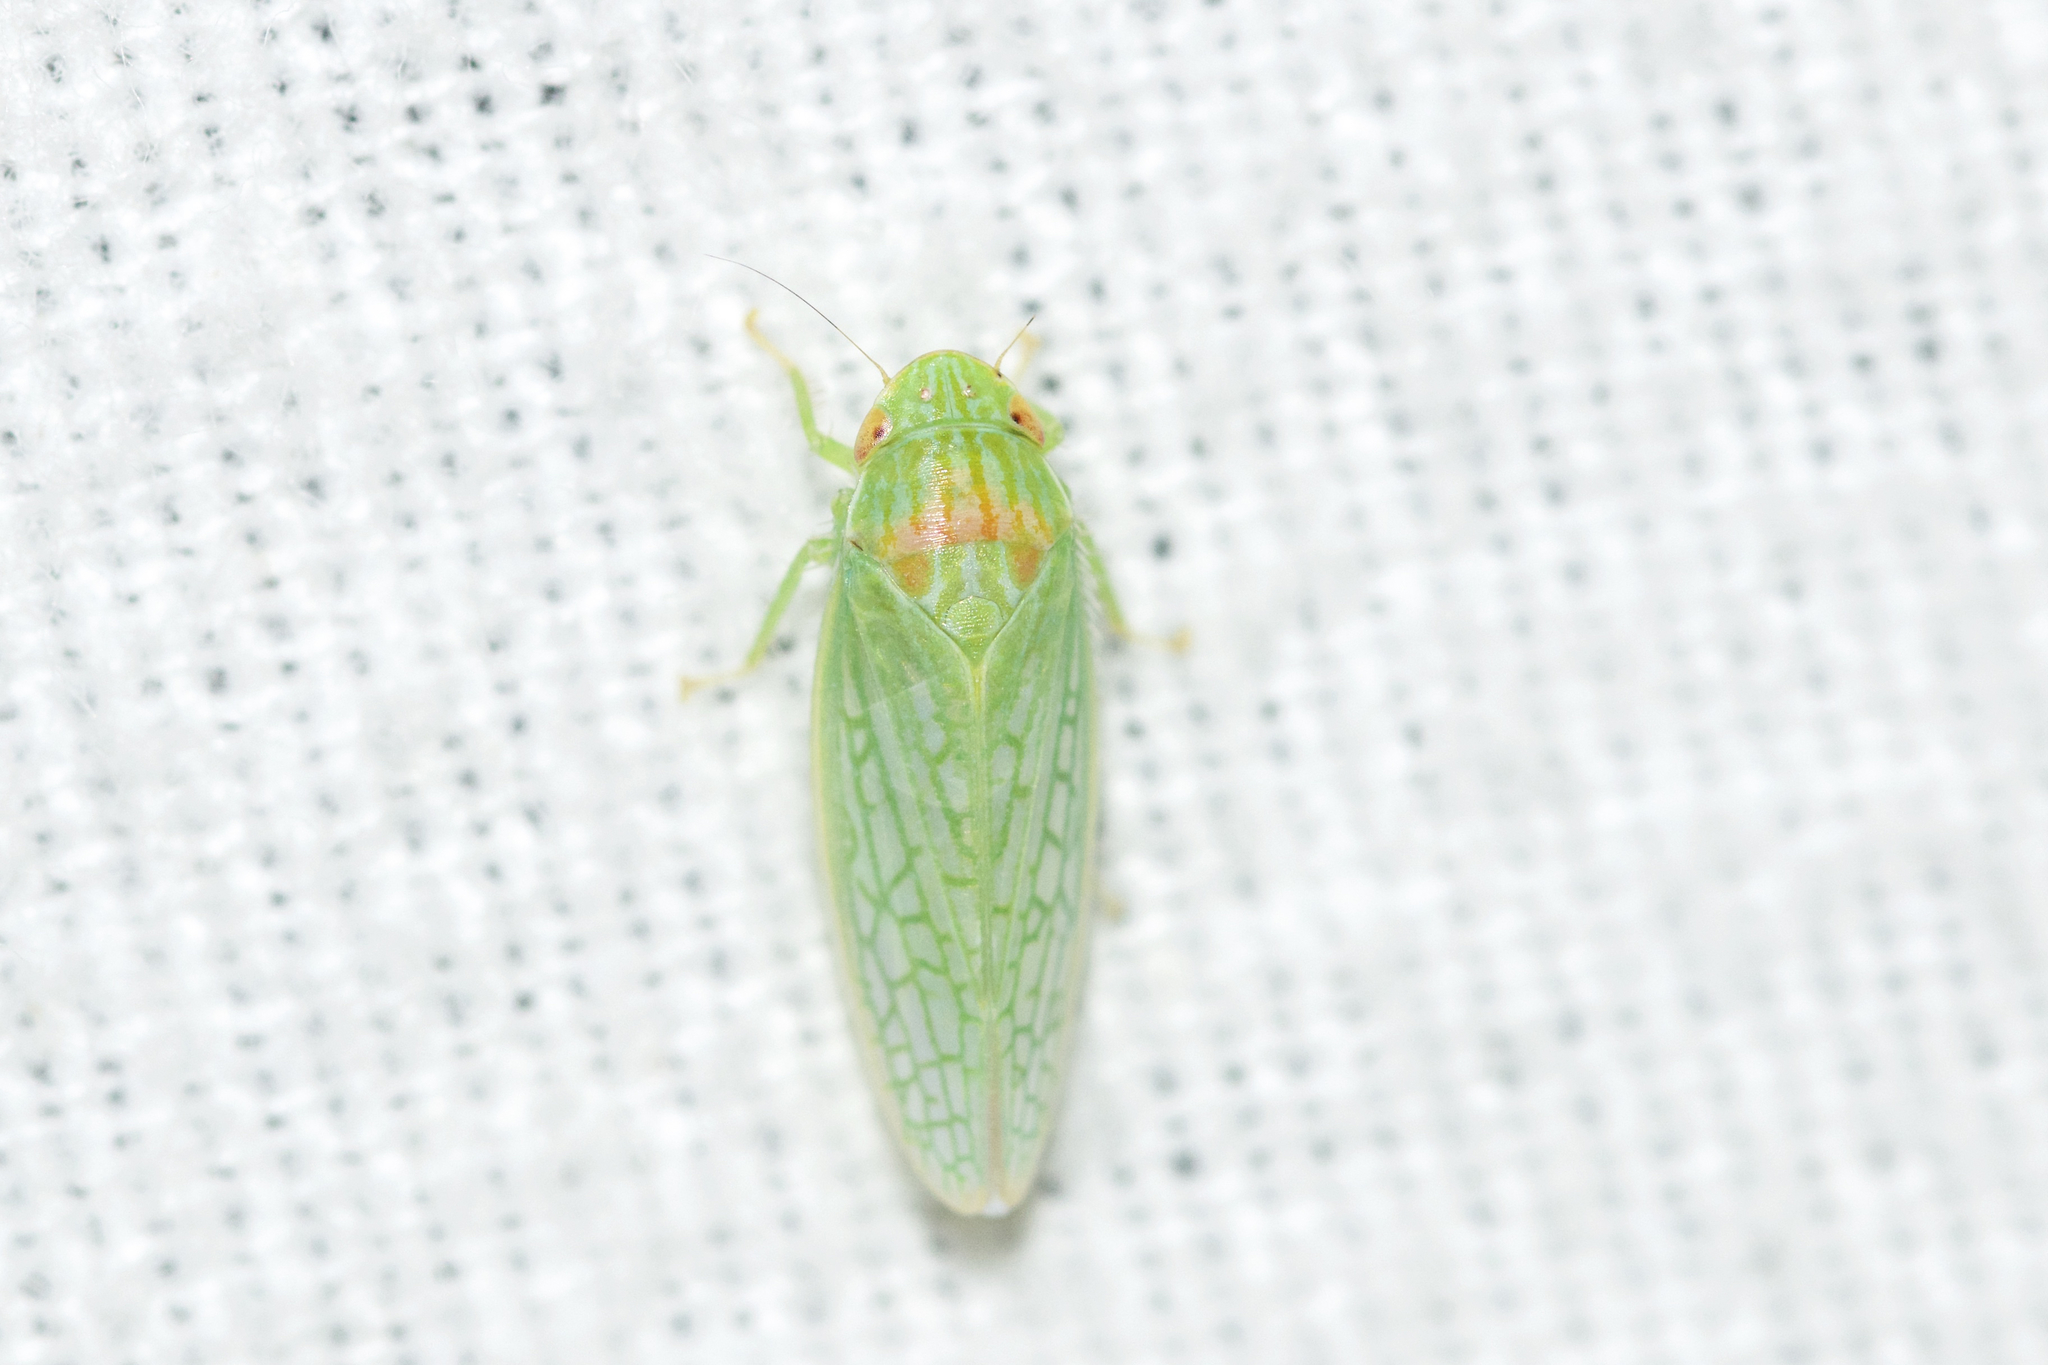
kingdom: Animalia
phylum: Arthropoda
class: Insecta
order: Hemiptera
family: Cicadellidae
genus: Gyponana
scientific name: Gyponana octolineata
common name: Eight-lined leafhopper
